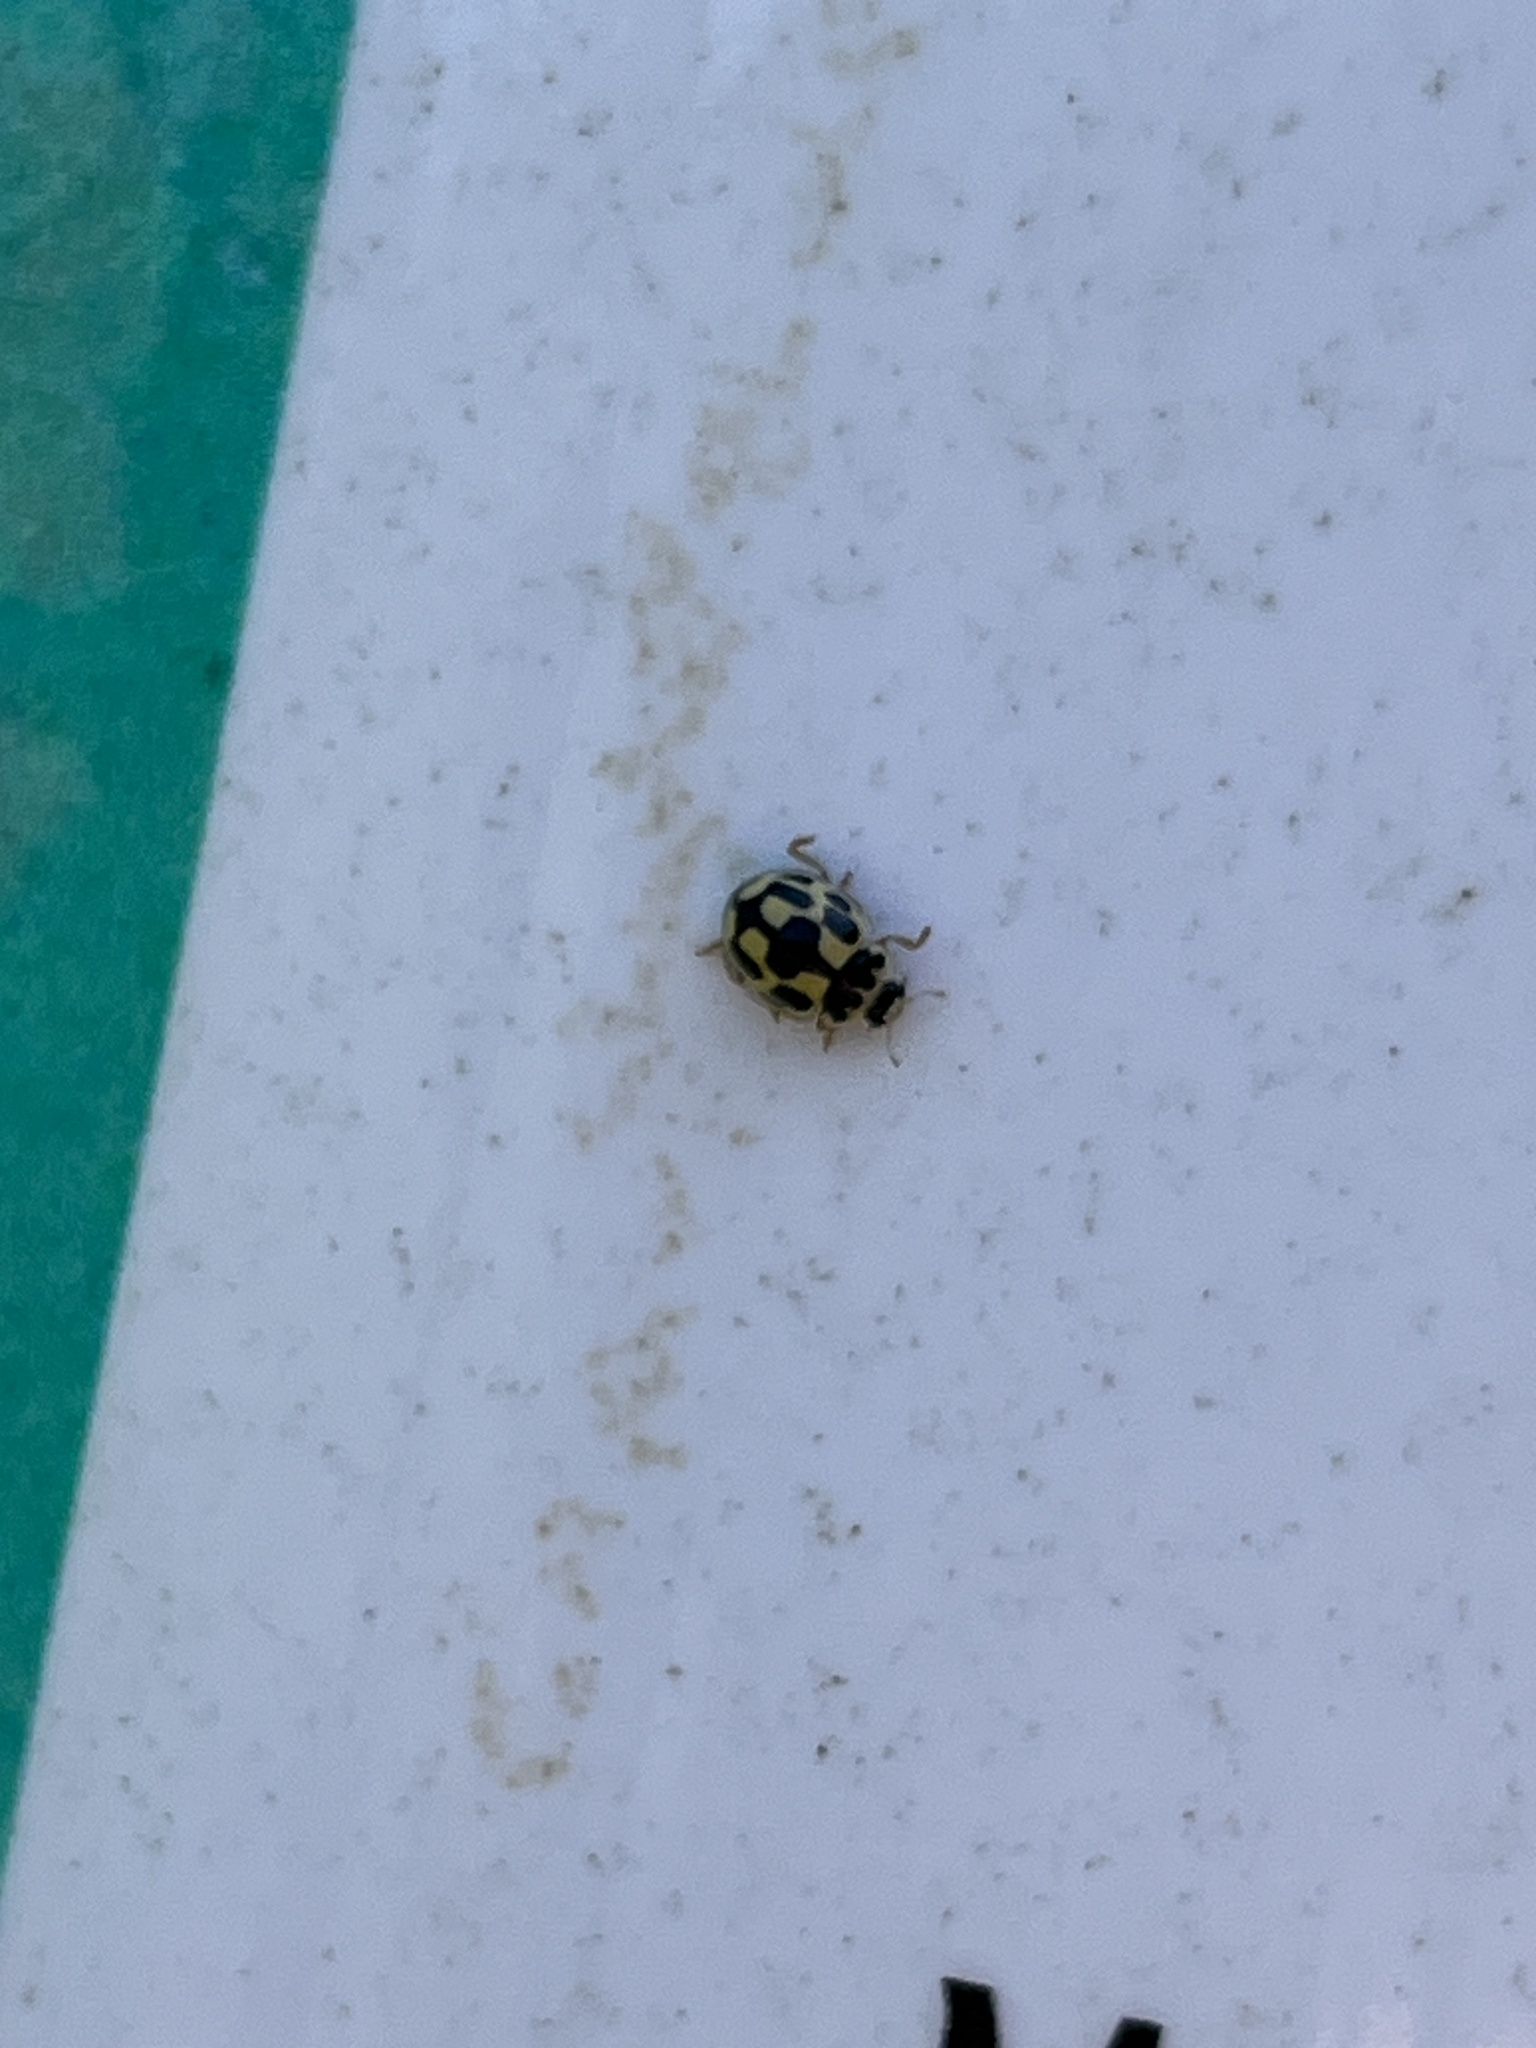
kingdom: Animalia
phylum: Arthropoda
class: Insecta
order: Coleoptera
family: Coccinellidae
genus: Propylaea
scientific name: Propylaea quatuordecimpunctata
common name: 14-spotted ladybird beetle
